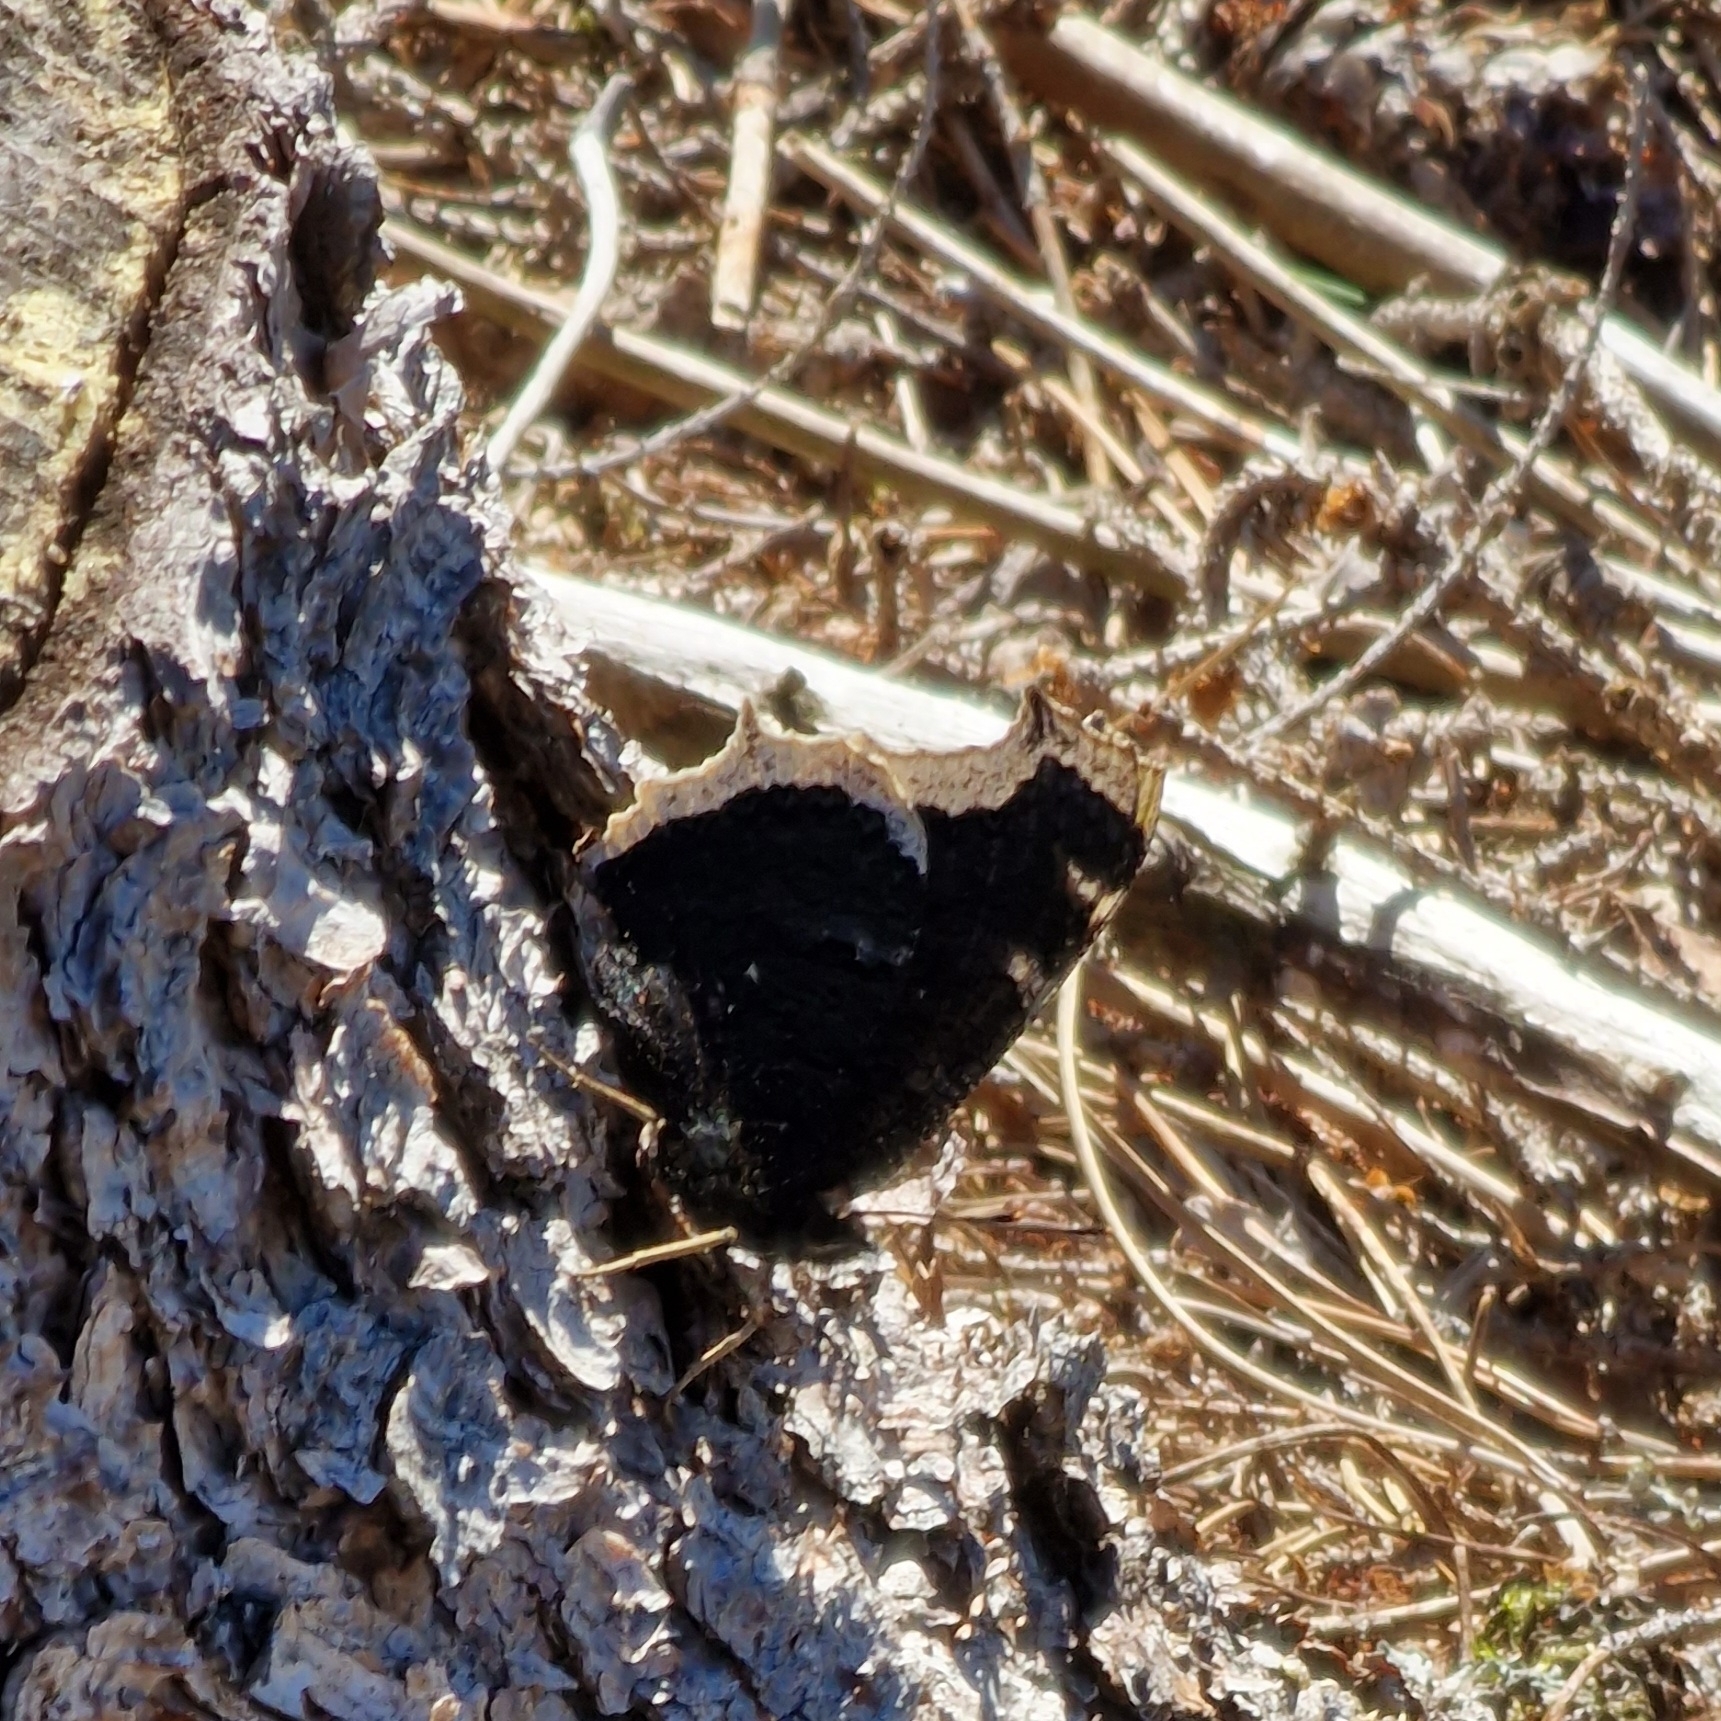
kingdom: Animalia
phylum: Arthropoda
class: Insecta
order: Lepidoptera
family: Nymphalidae
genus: Nymphalis
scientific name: Nymphalis antiopa
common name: Camberwell beauty
